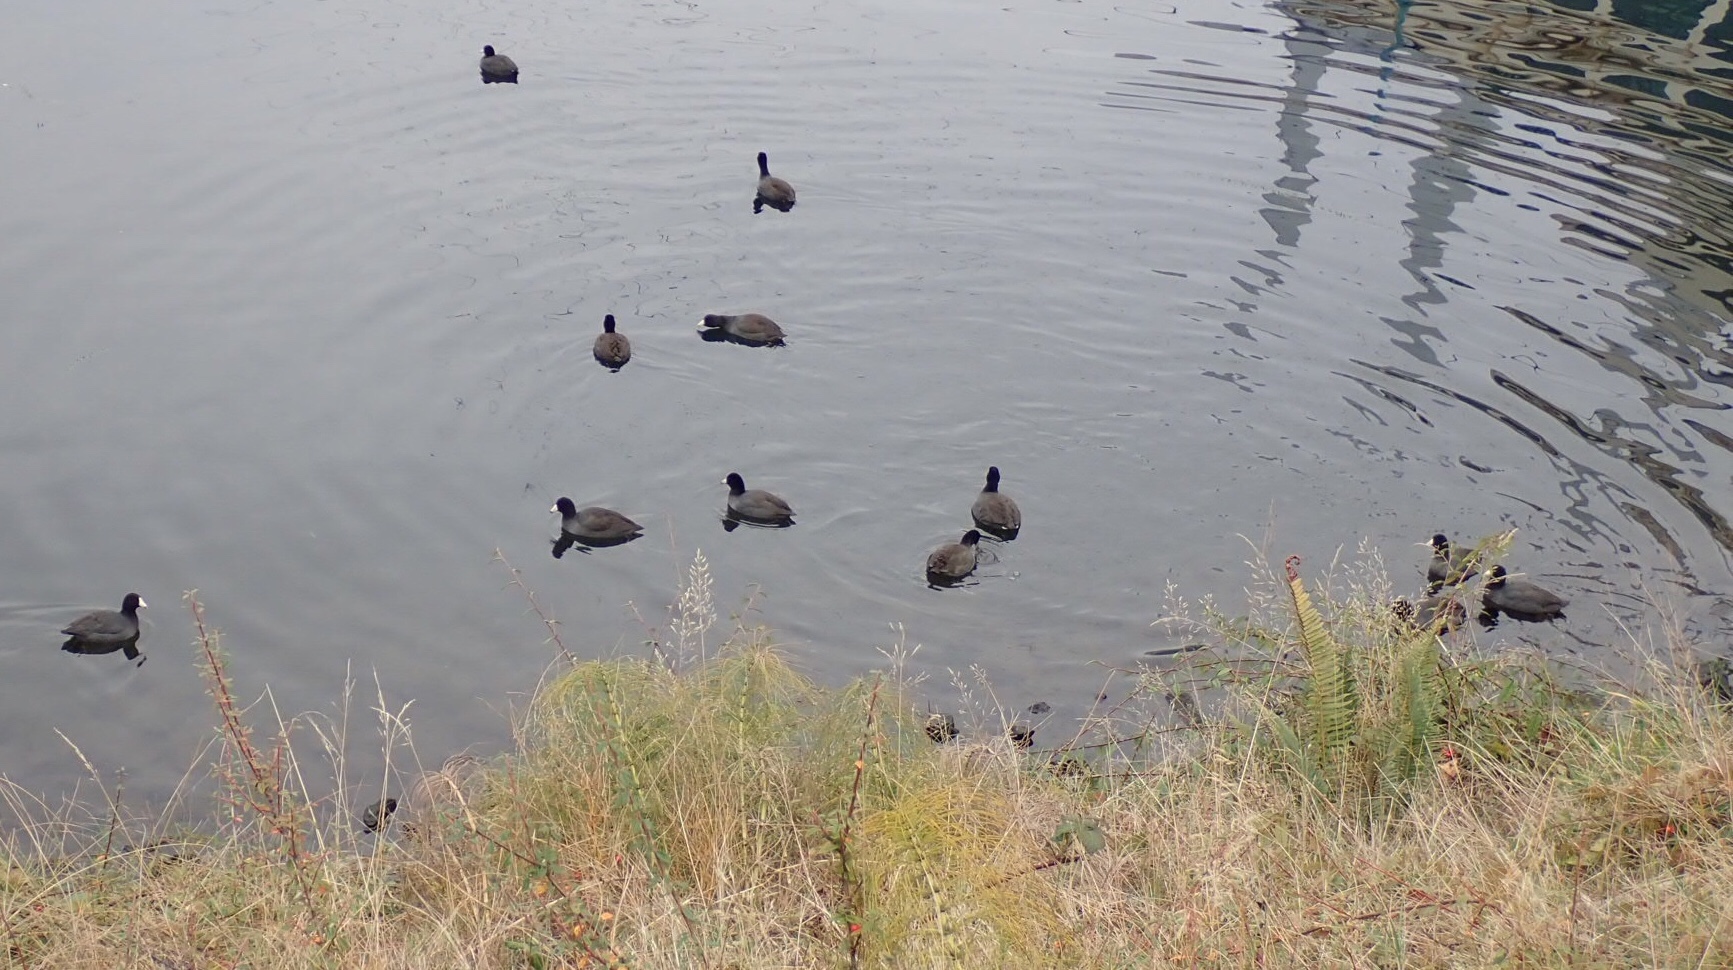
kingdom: Animalia
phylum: Chordata
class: Aves
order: Gruiformes
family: Rallidae
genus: Fulica
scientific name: Fulica americana
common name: American coot
